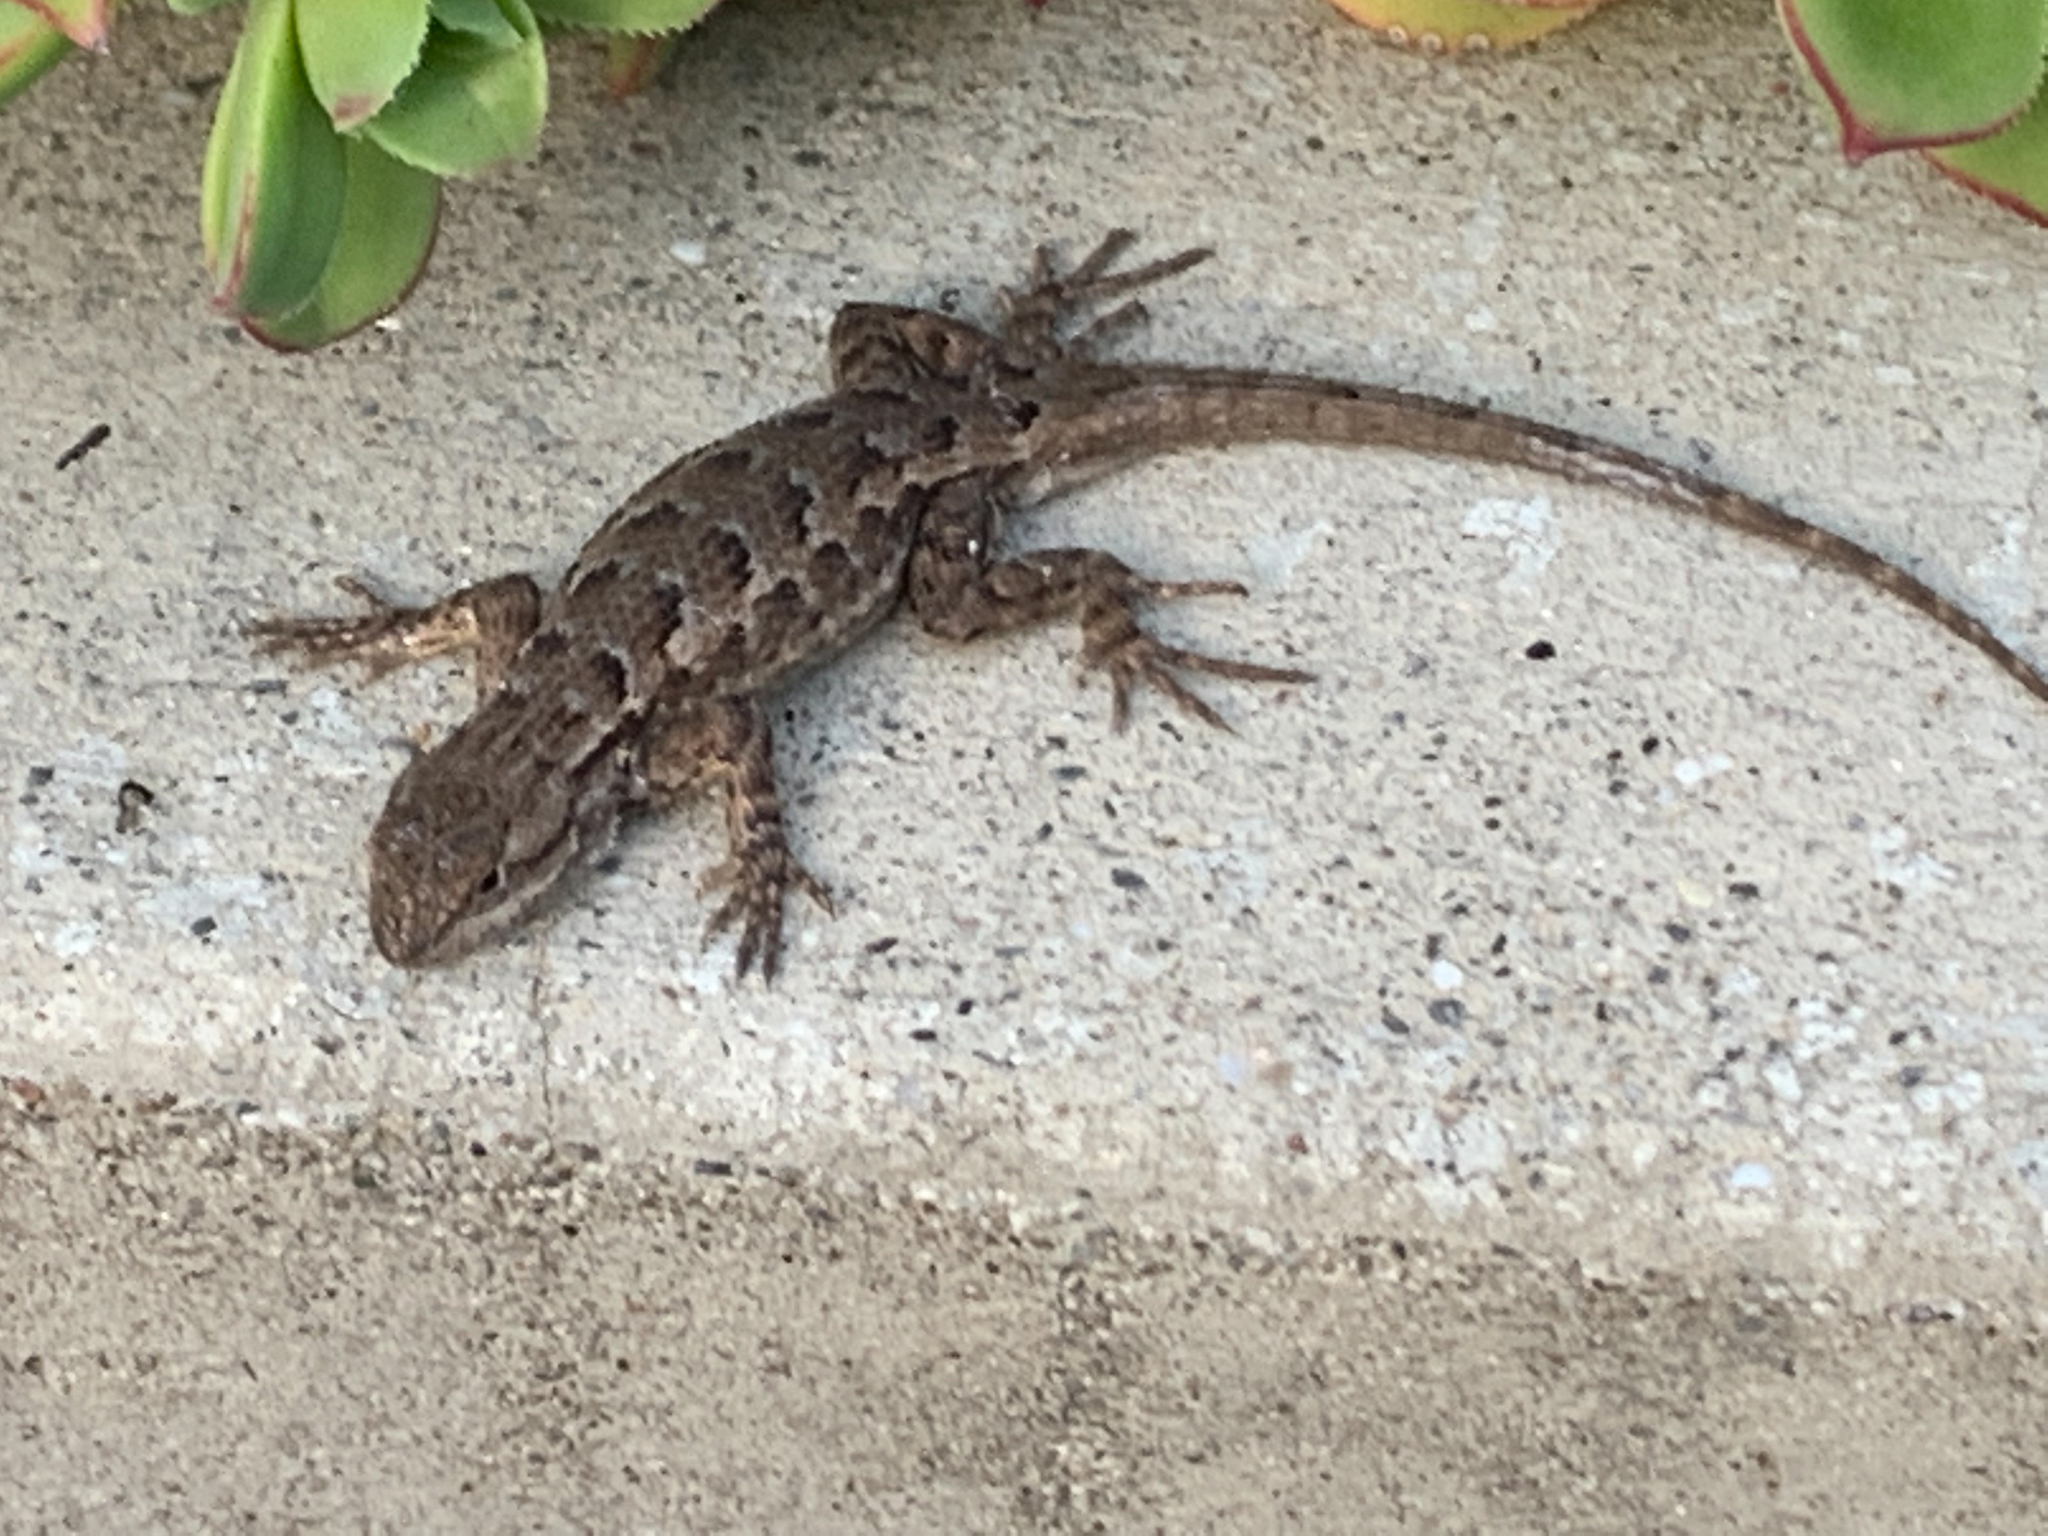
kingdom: Animalia
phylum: Chordata
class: Squamata
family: Phrynosomatidae
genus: Sceloporus
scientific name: Sceloporus occidentalis
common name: Western fence lizard
